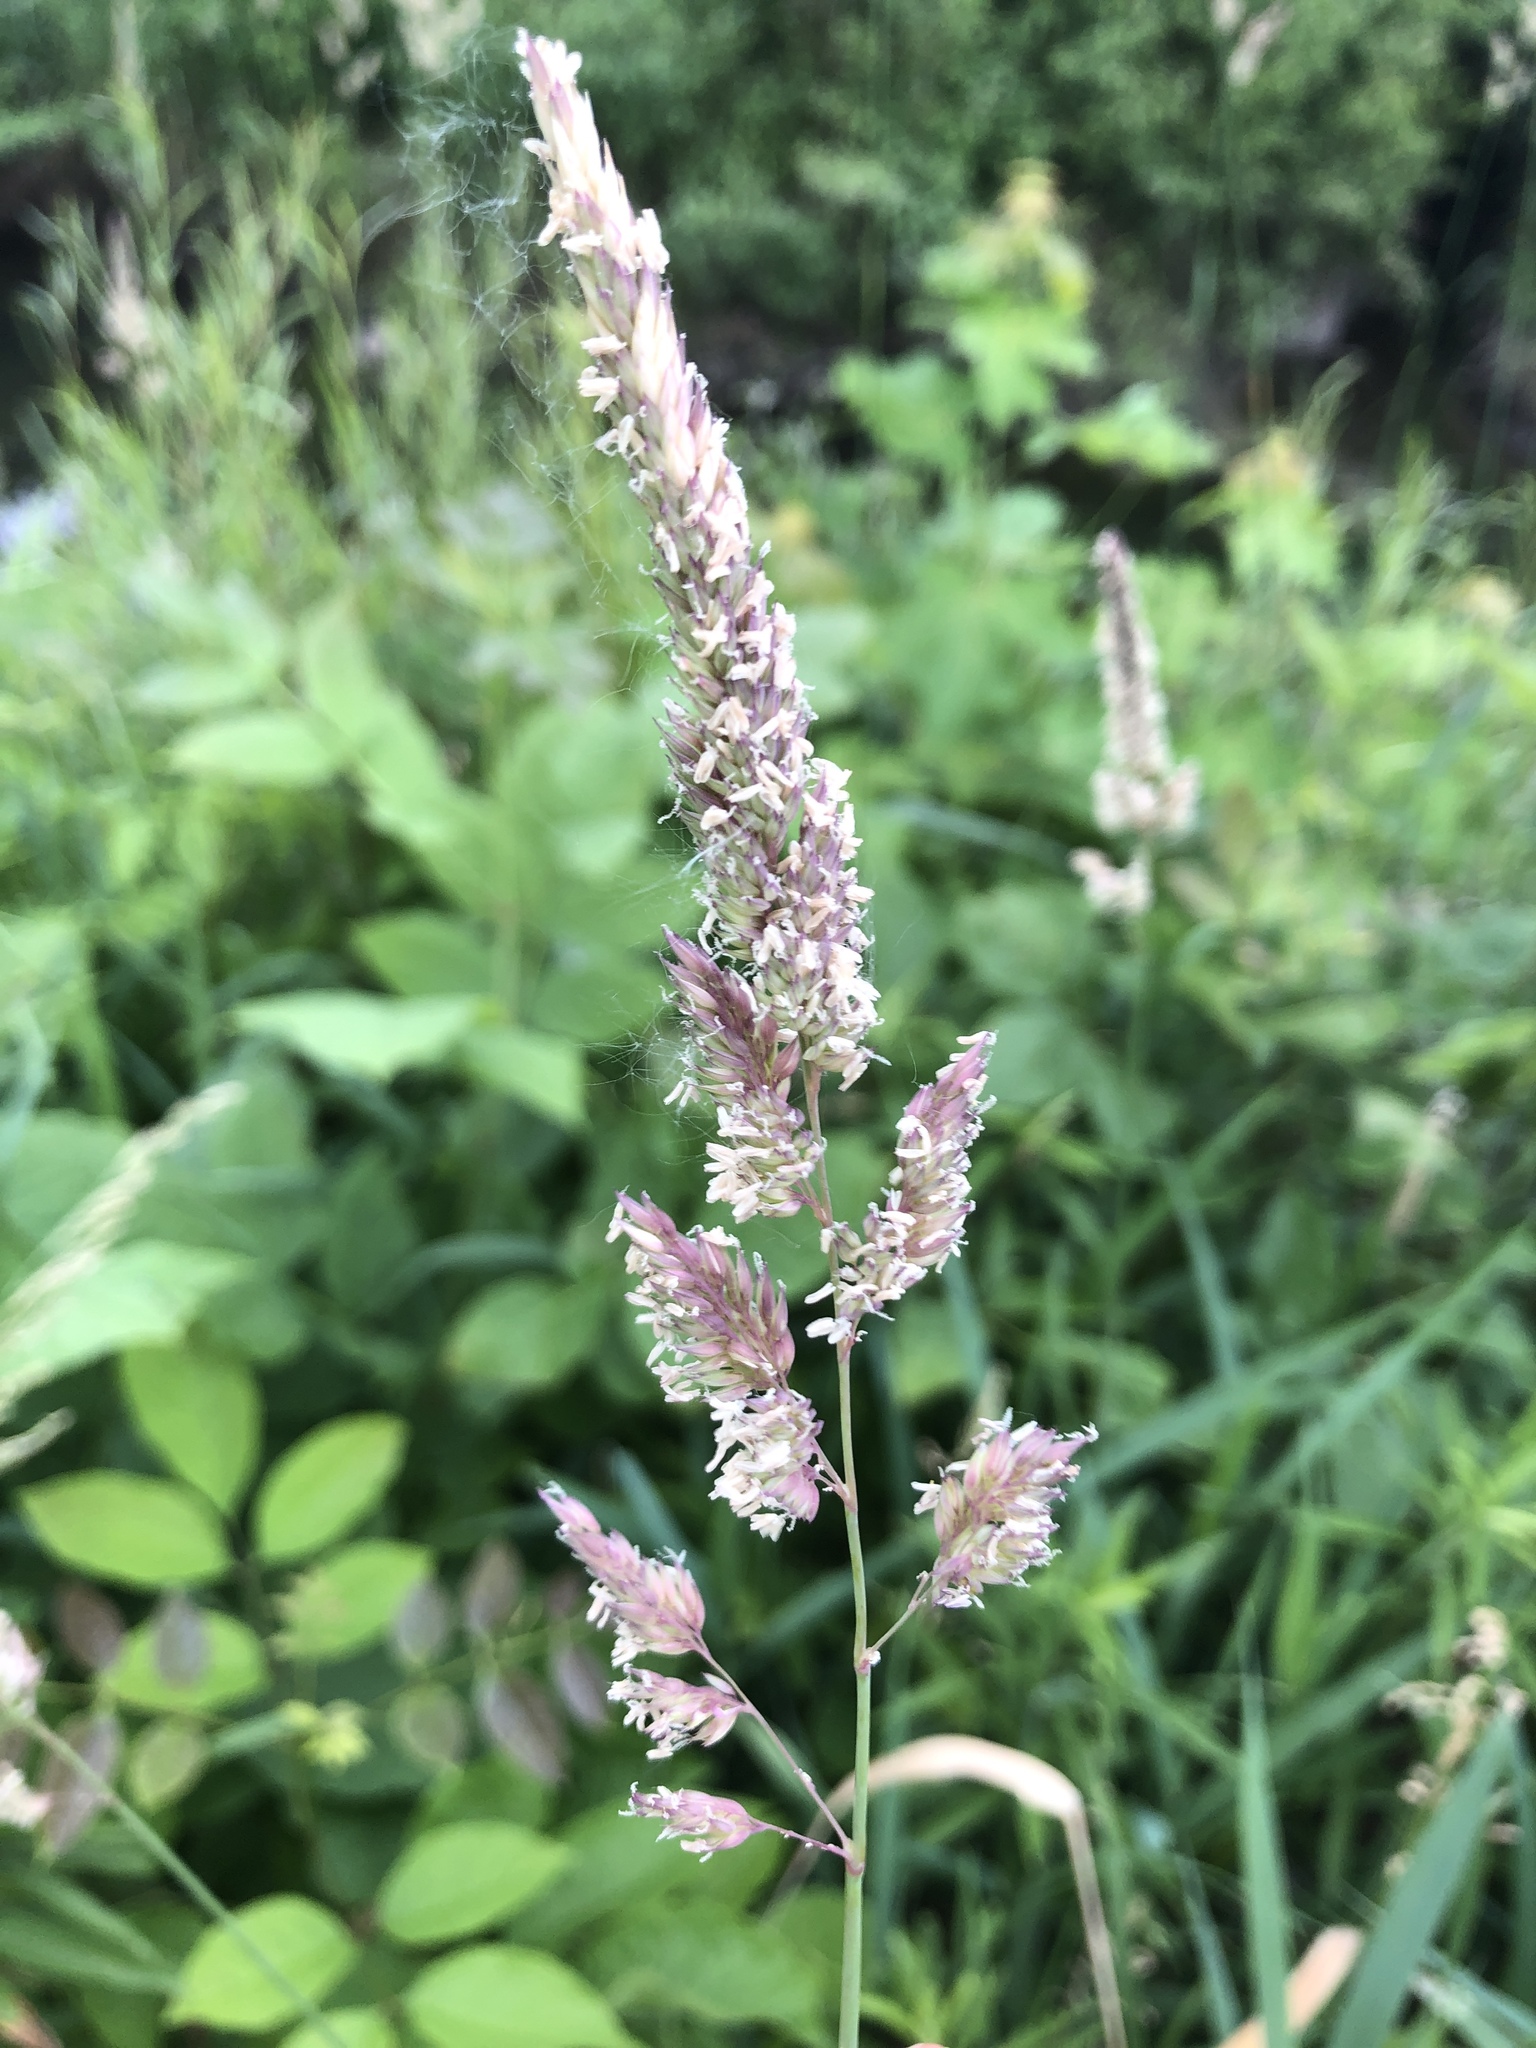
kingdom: Plantae
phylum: Tracheophyta
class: Liliopsida
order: Poales
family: Poaceae
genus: Phalaris
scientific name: Phalaris arundinacea
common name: Reed canary-grass
